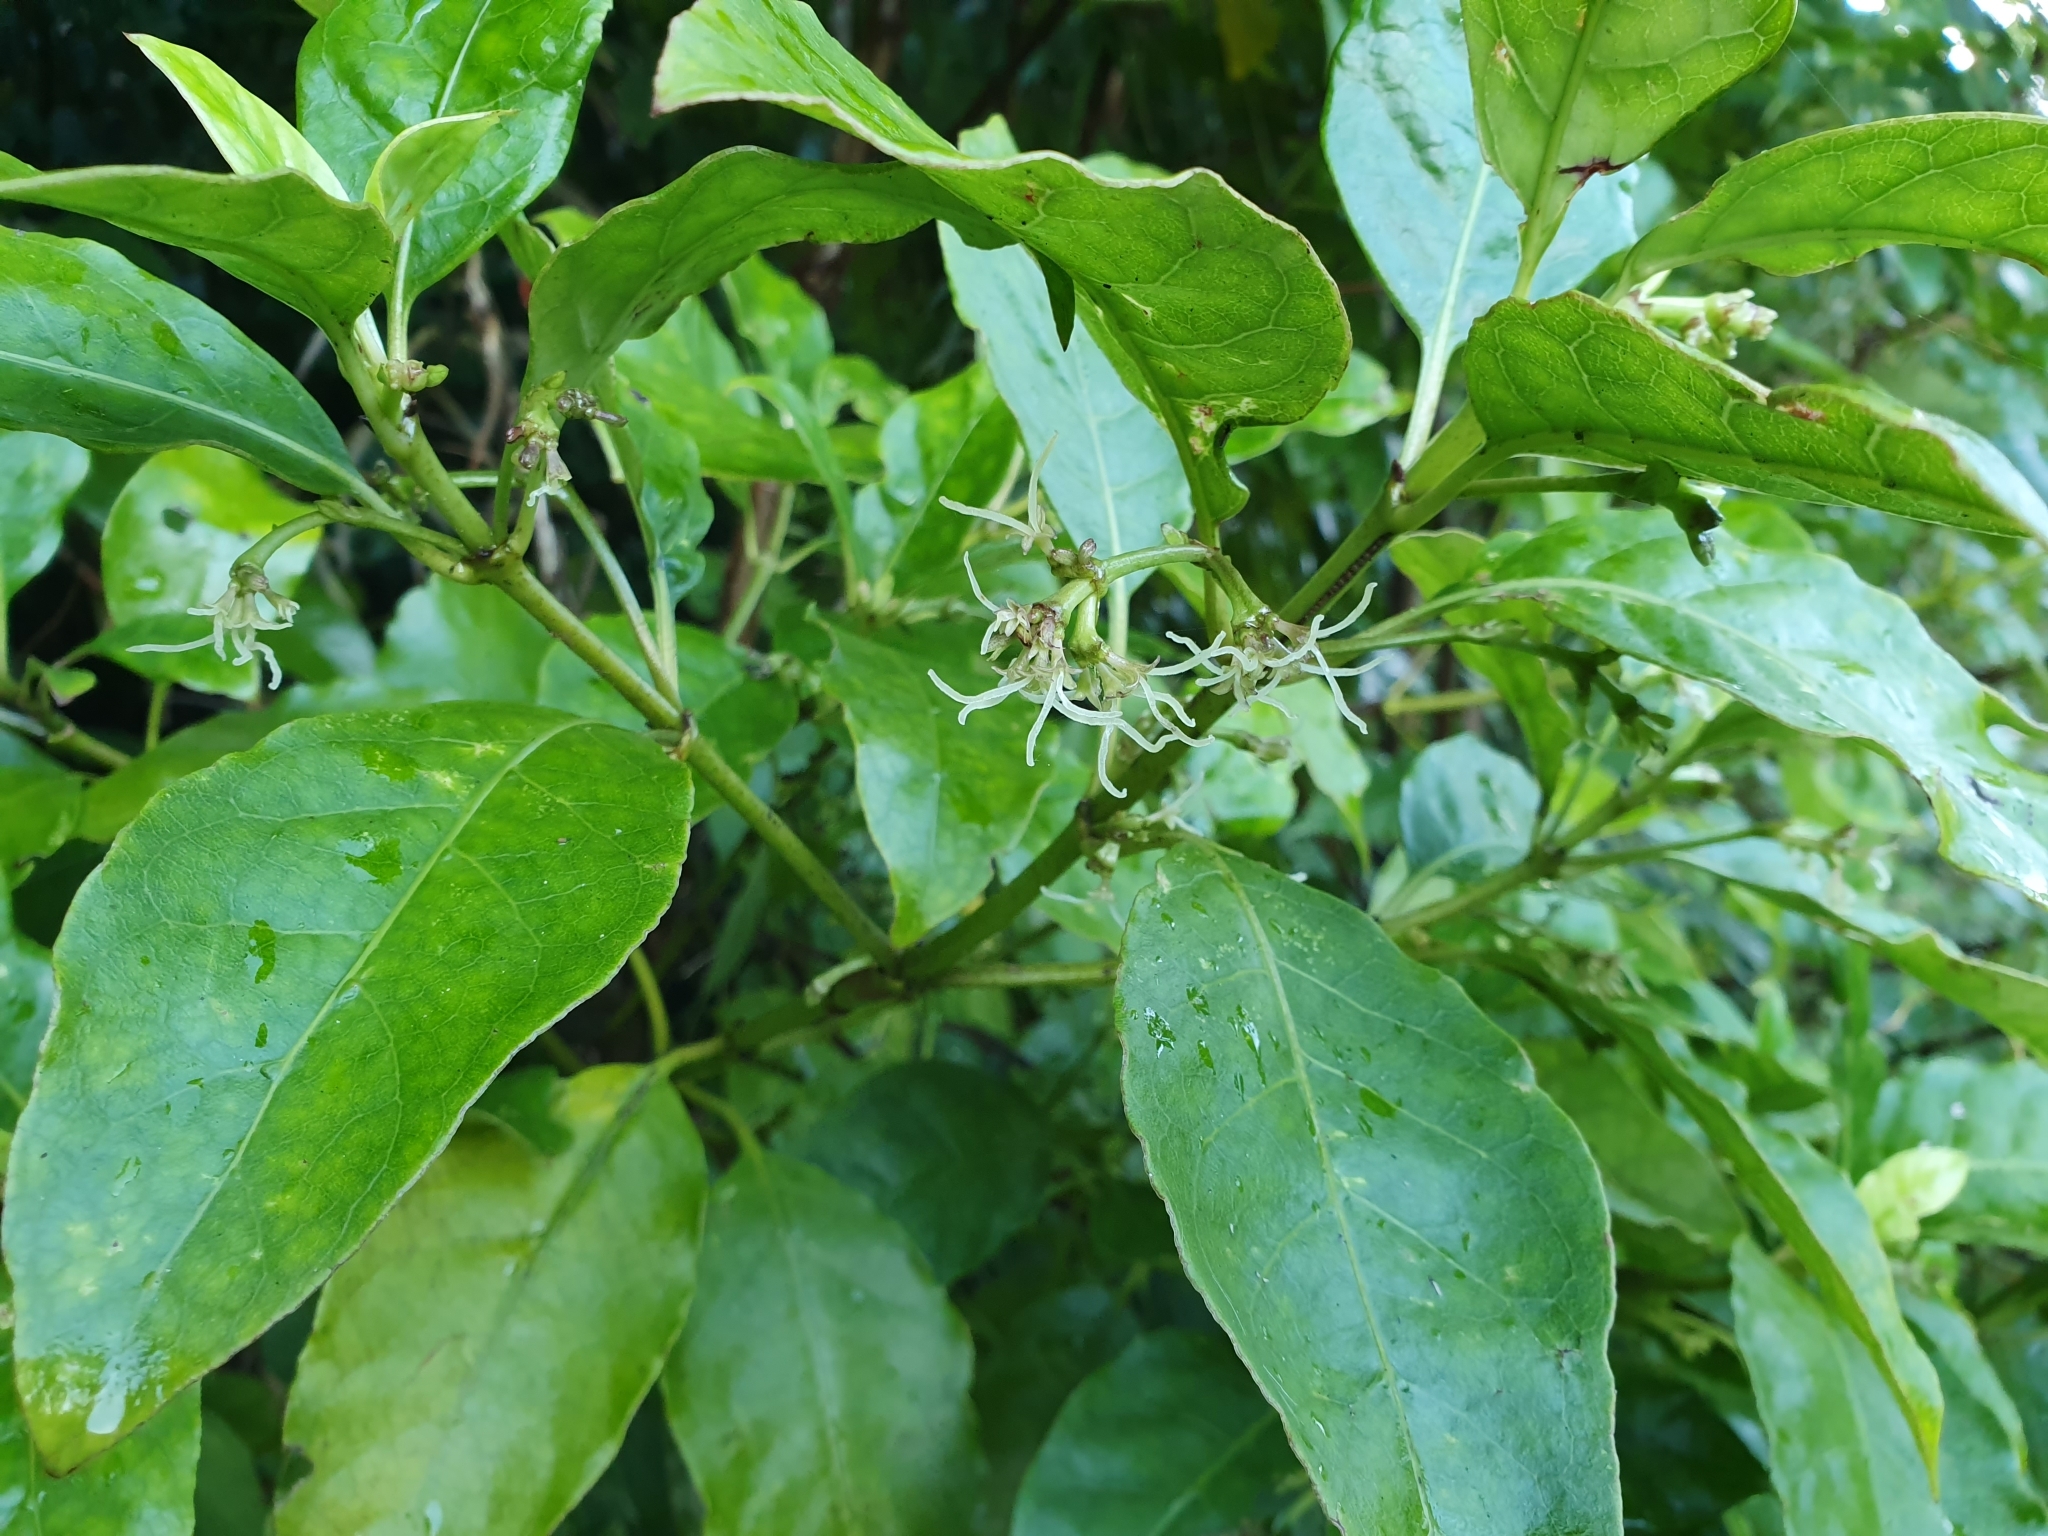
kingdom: Plantae
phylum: Tracheophyta
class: Magnoliopsida
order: Gentianales
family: Rubiaceae
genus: Coprosma
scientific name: Coprosma autumnalis
